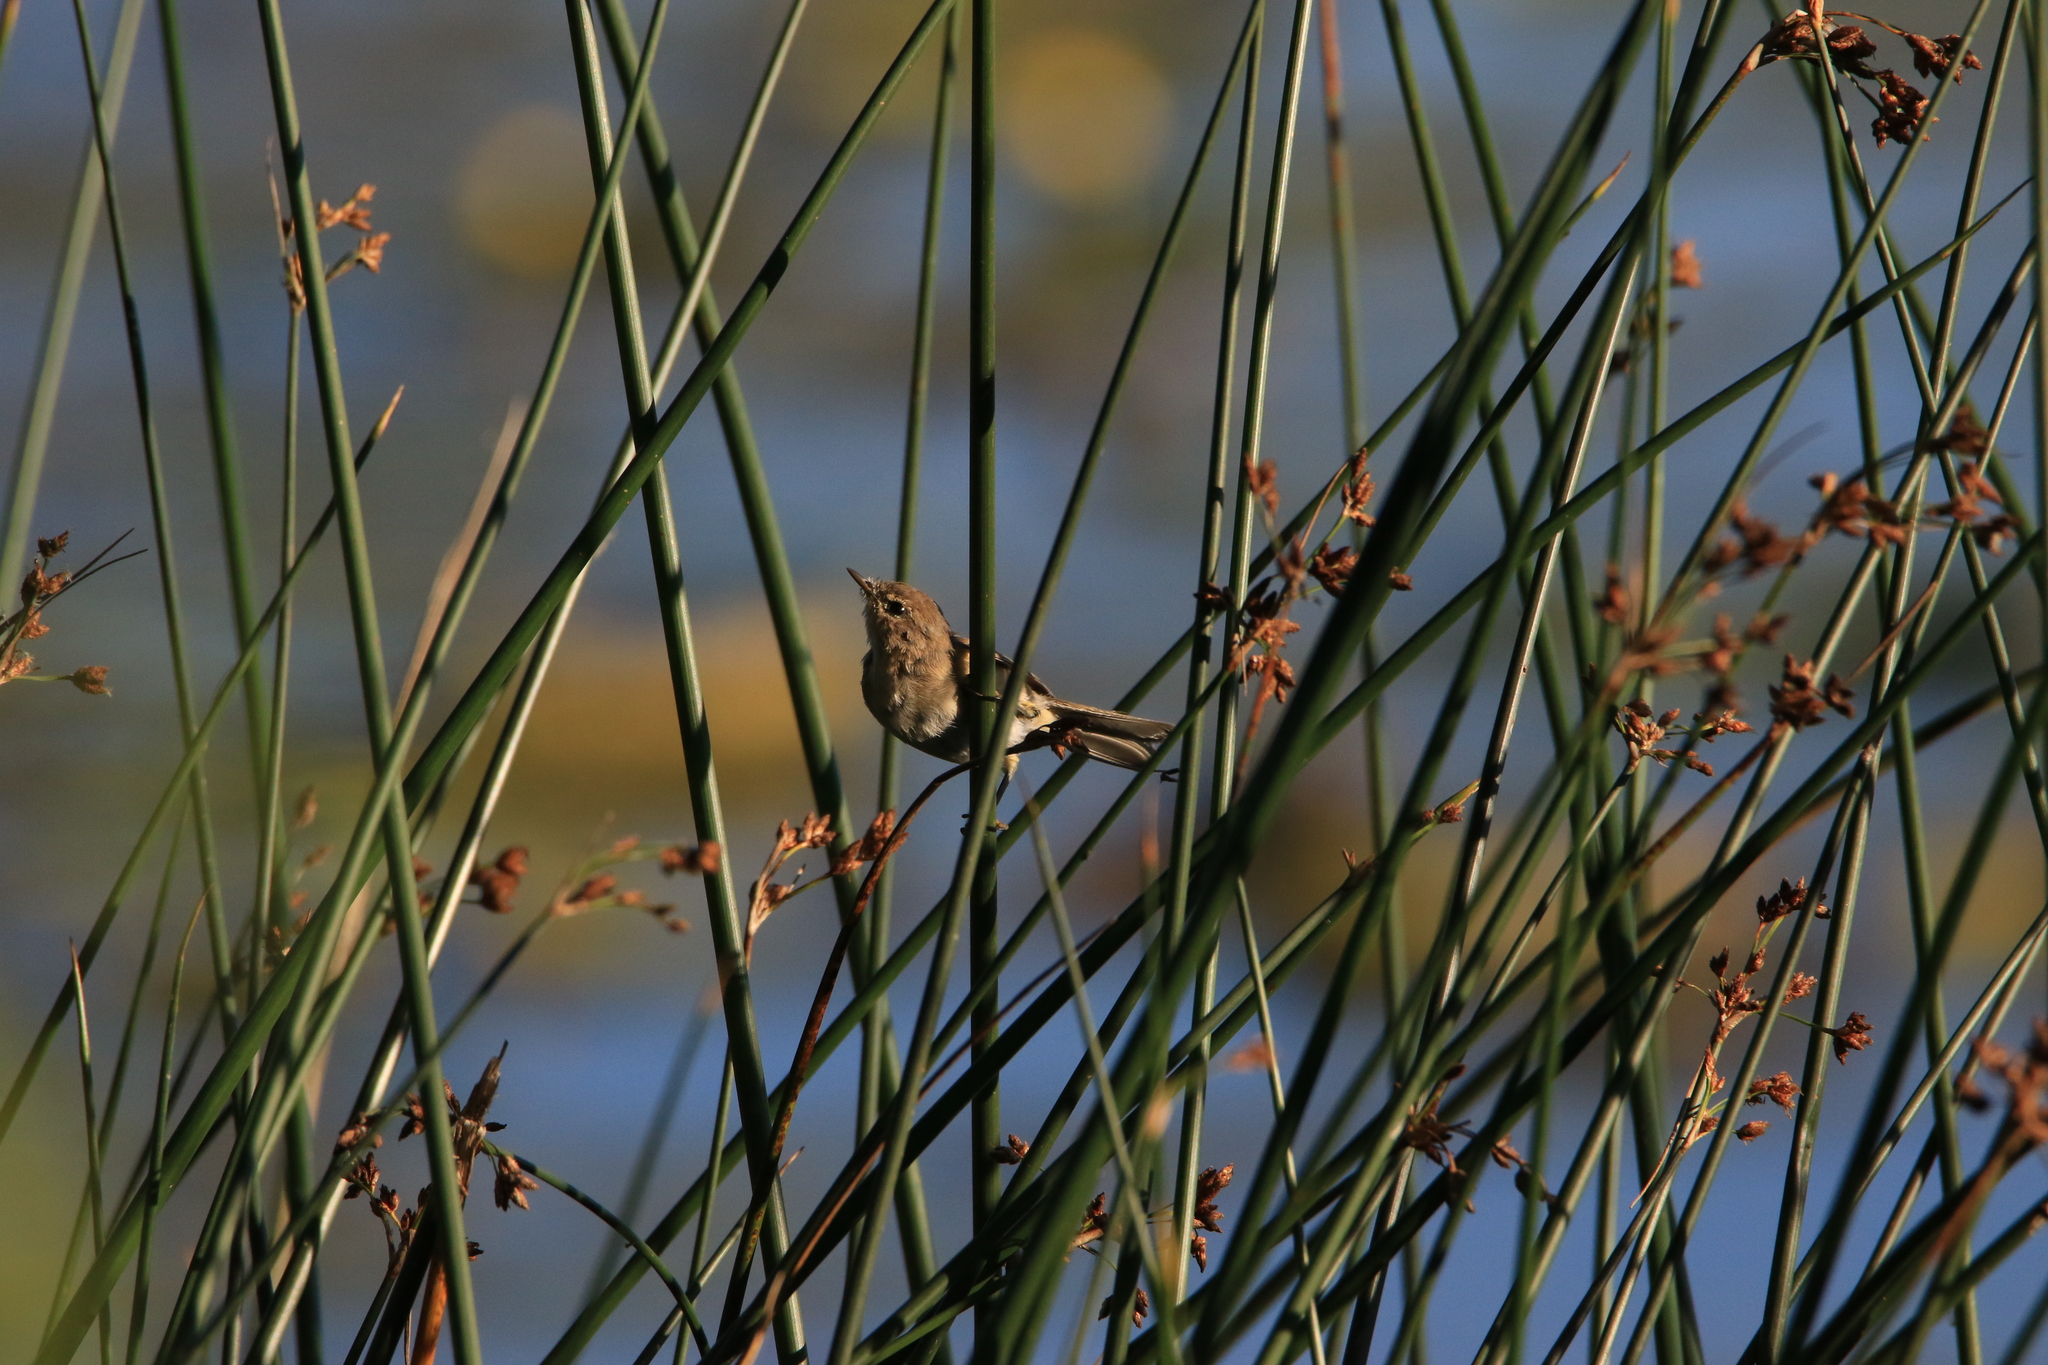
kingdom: Animalia
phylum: Chordata
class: Aves
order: Passeriformes
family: Phylloscopidae
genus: Phylloscopus
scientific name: Phylloscopus collybita
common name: Common chiffchaff
